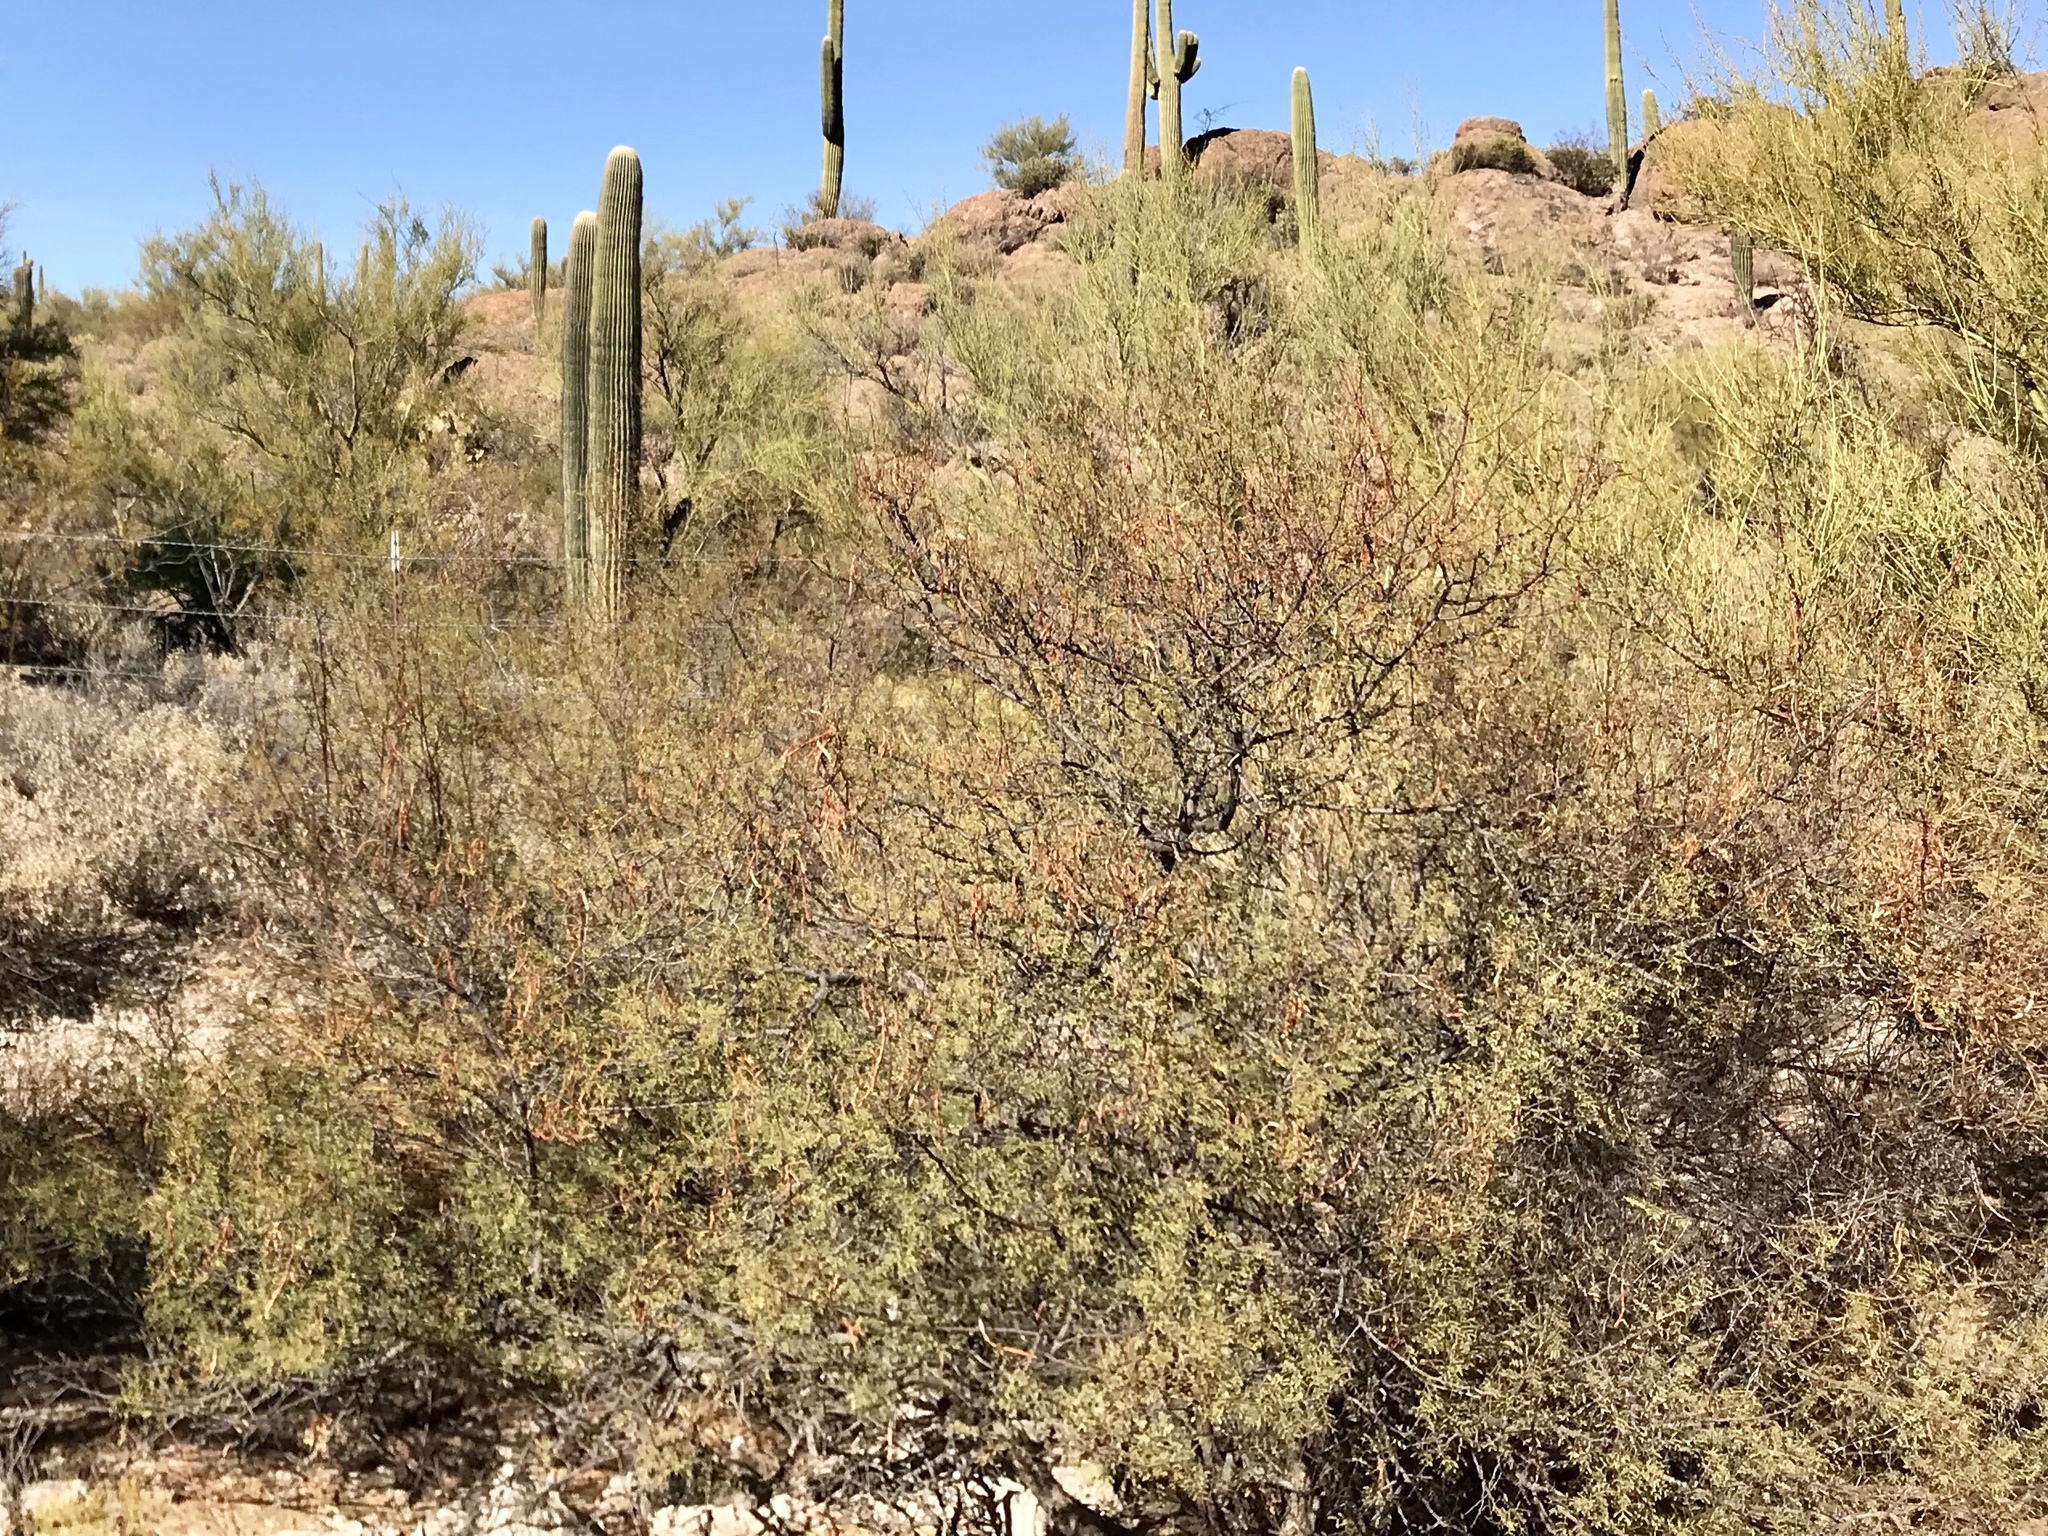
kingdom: Plantae
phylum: Tracheophyta
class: Magnoliopsida
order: Fabales
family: Fabaceae
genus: Vachellia
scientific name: Vachellia constricta
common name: Mescat acacia
